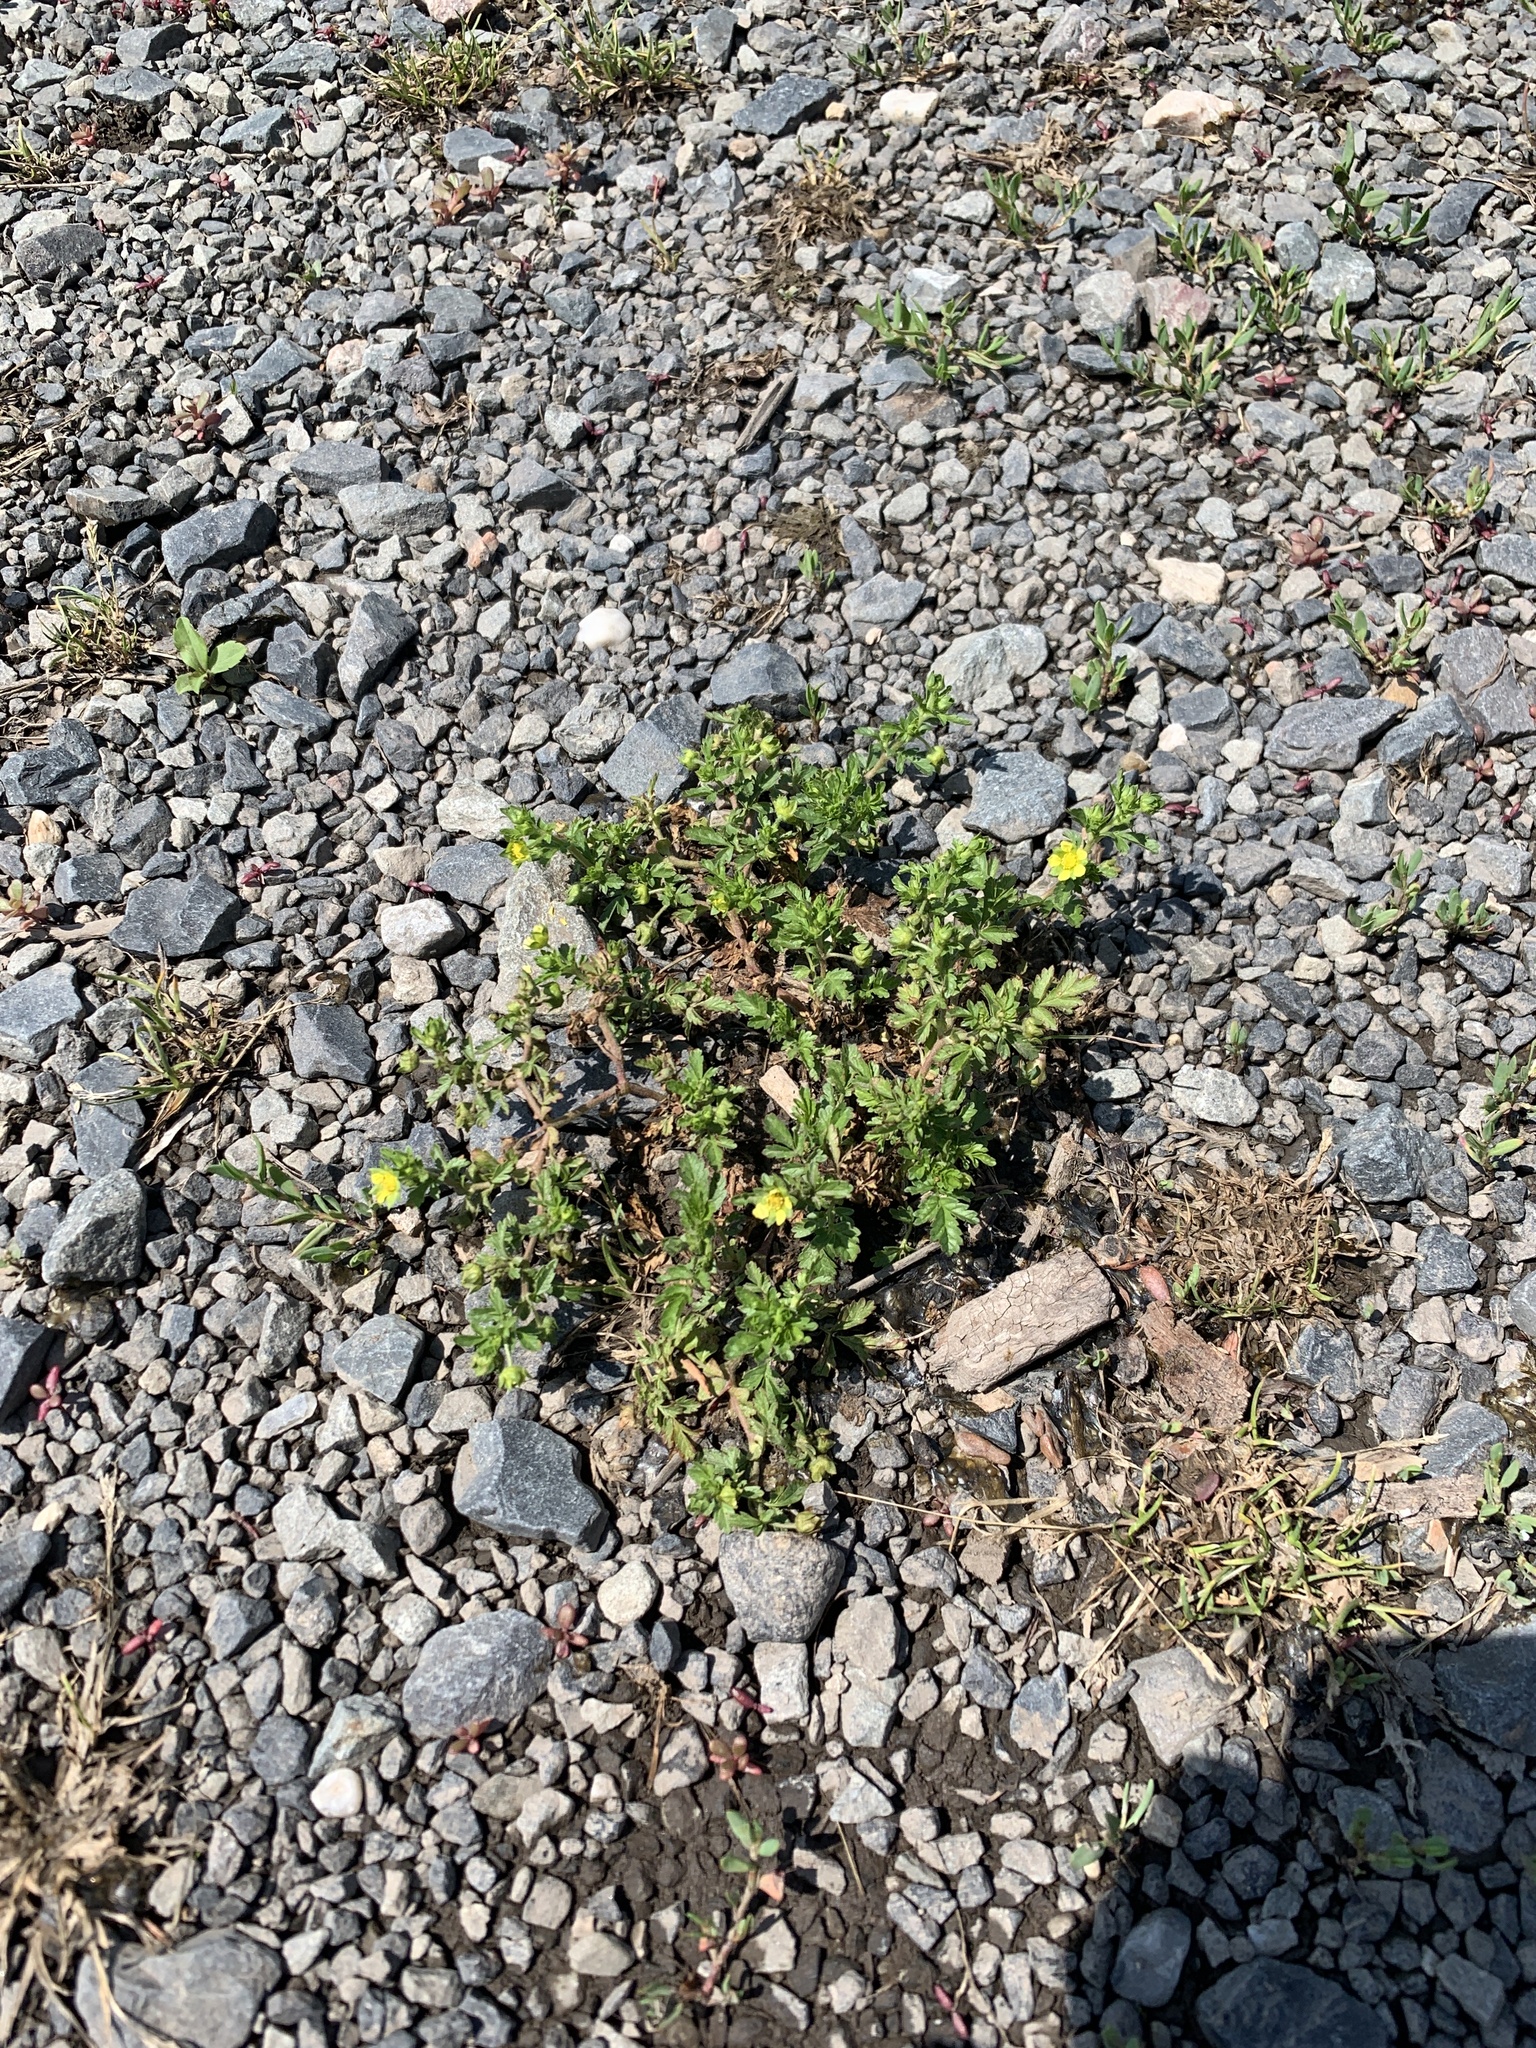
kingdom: Plantae
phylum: Tracheophyta
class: Magnoliopsida
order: Rosales
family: Rosaceae
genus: Potentilla
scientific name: Potentilla supina
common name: Prostrate cinquefoil
